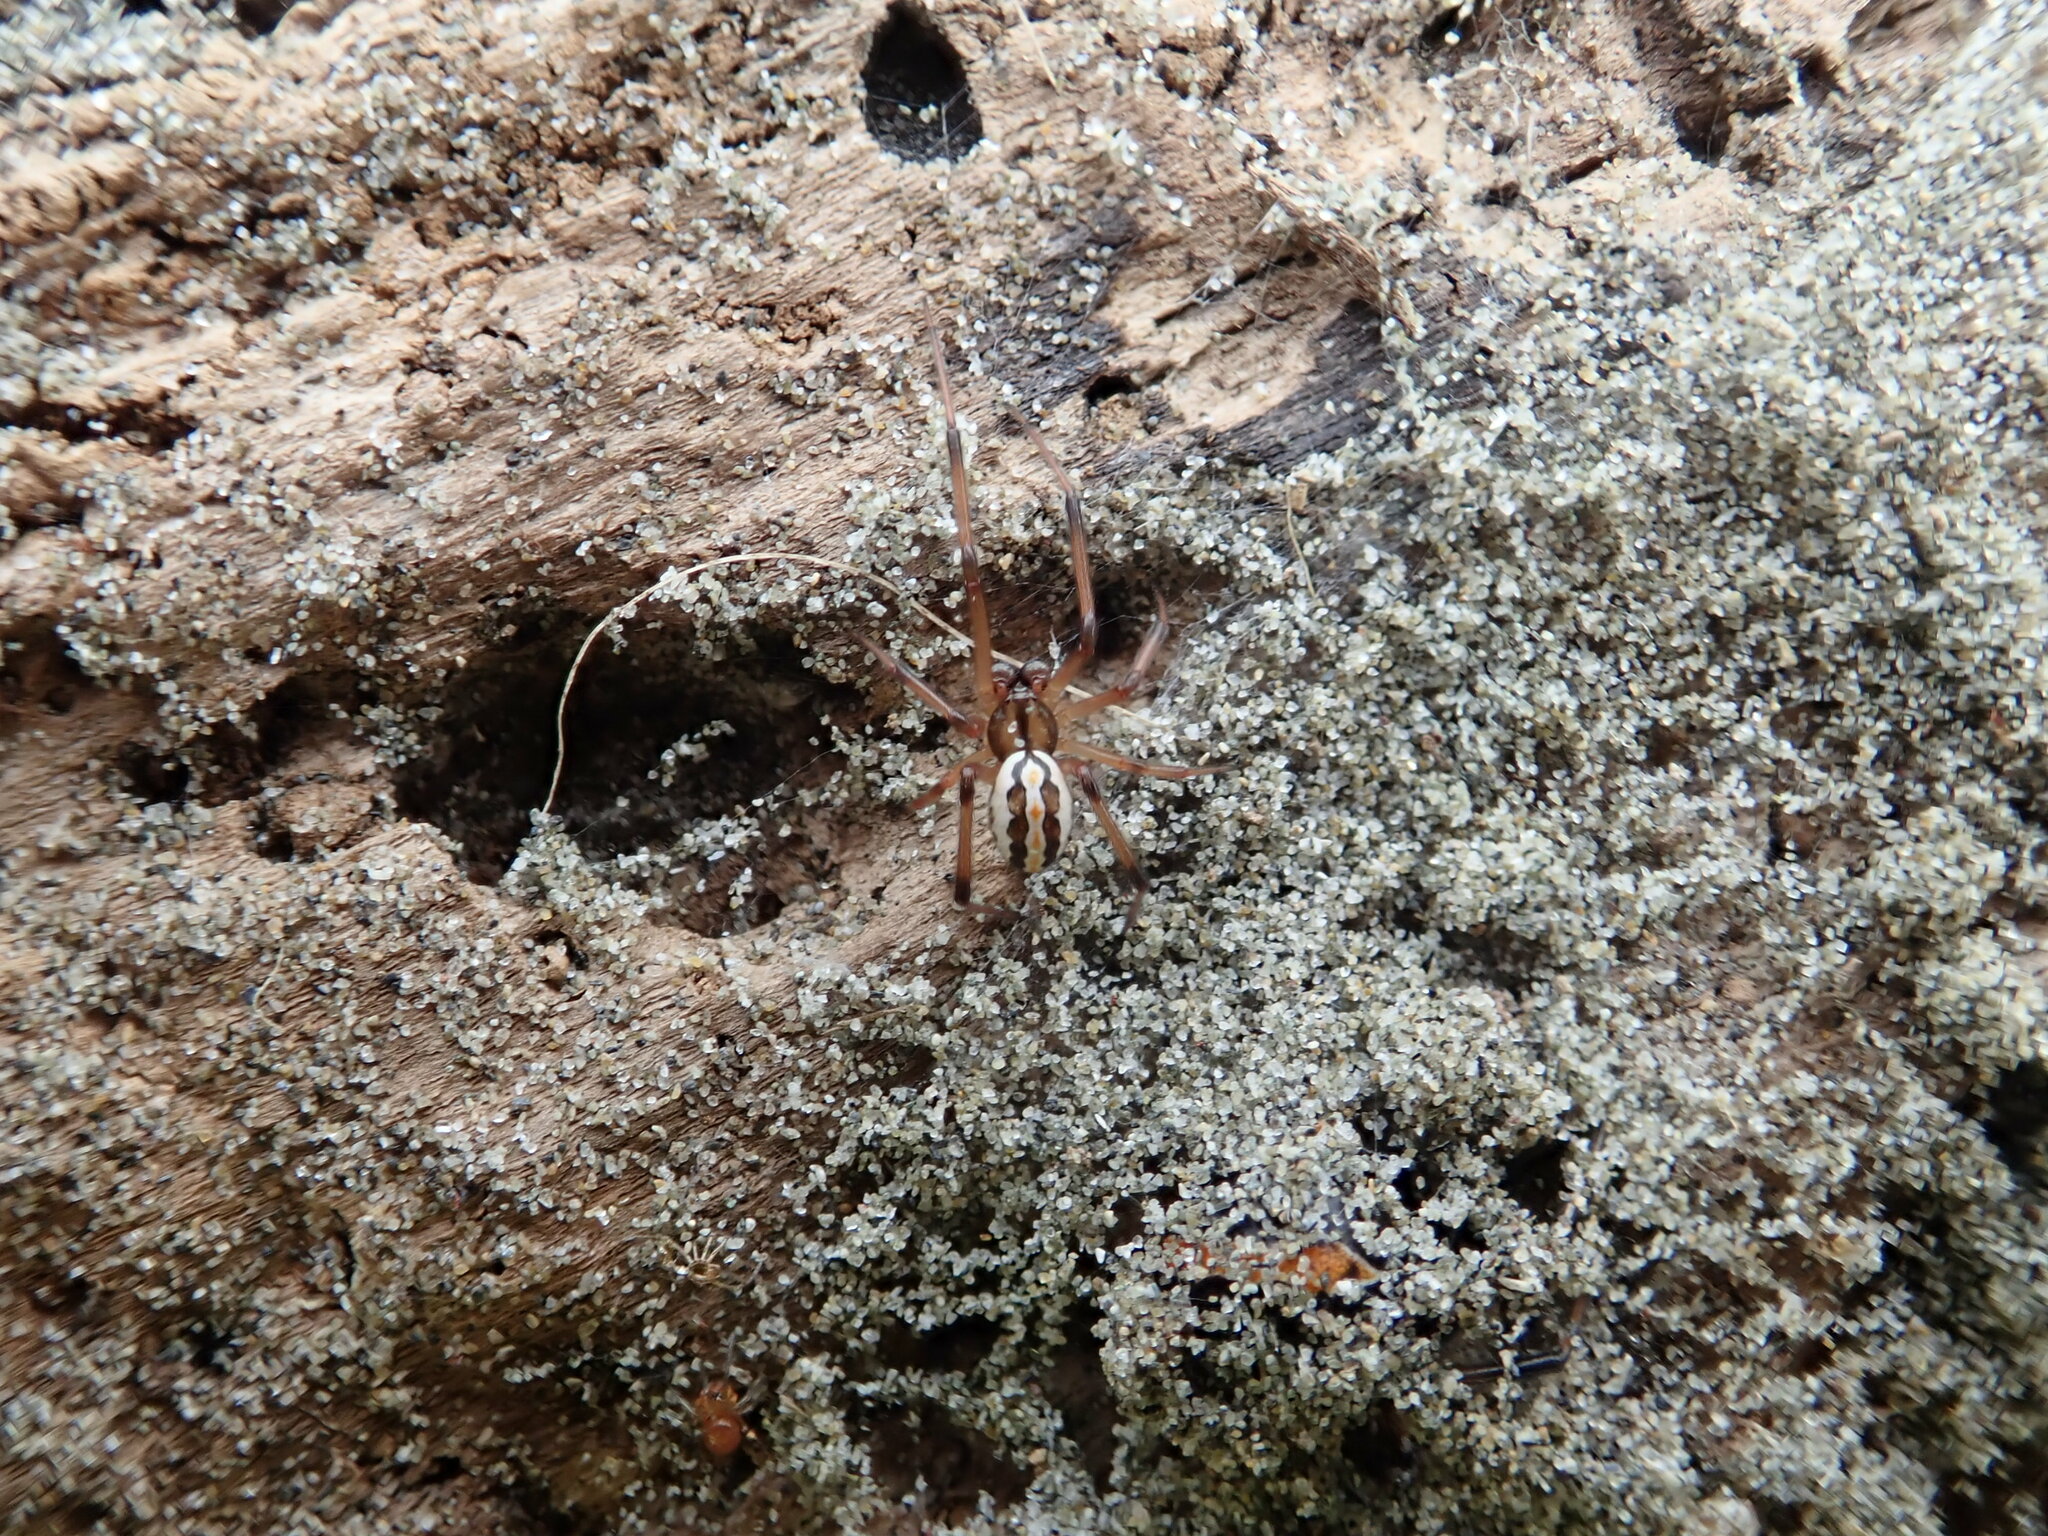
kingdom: Animalia
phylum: Arthropoda
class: Arachnida
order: Araneae
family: Theridiidae
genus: Latrodectus
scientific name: Latrodectus katipo
